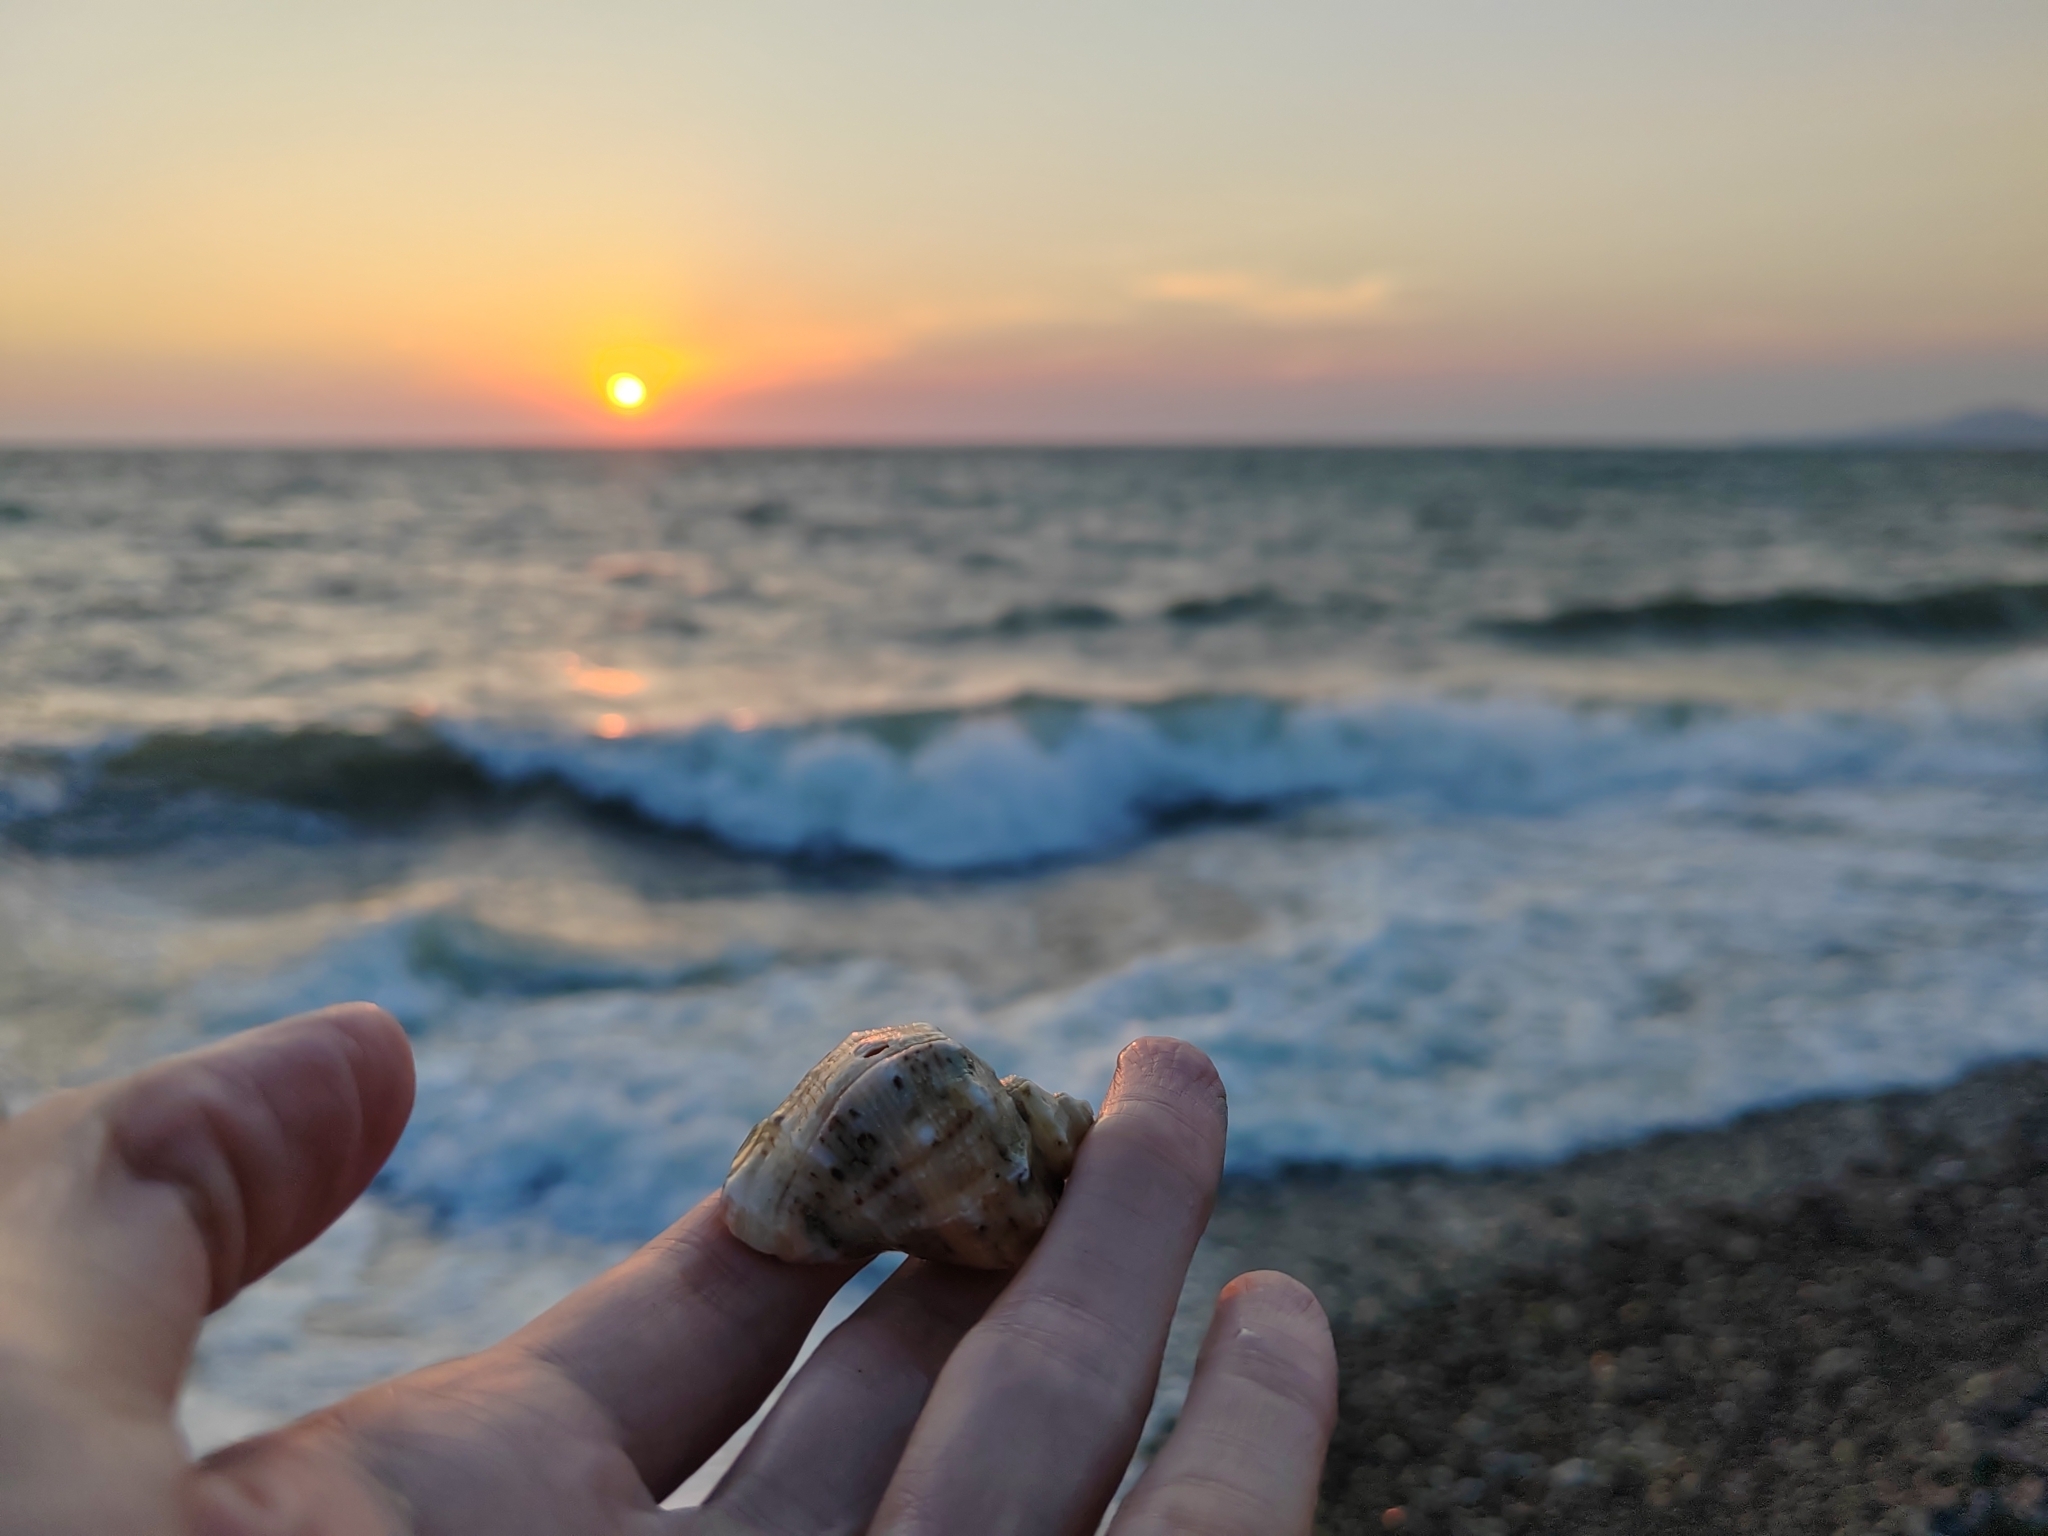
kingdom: Animalia
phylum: Mollusca
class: Gastropoda
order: Neogastropoda
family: Muricidae
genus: Rapana
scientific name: Rapana venosa
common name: Veined rapa whelk
